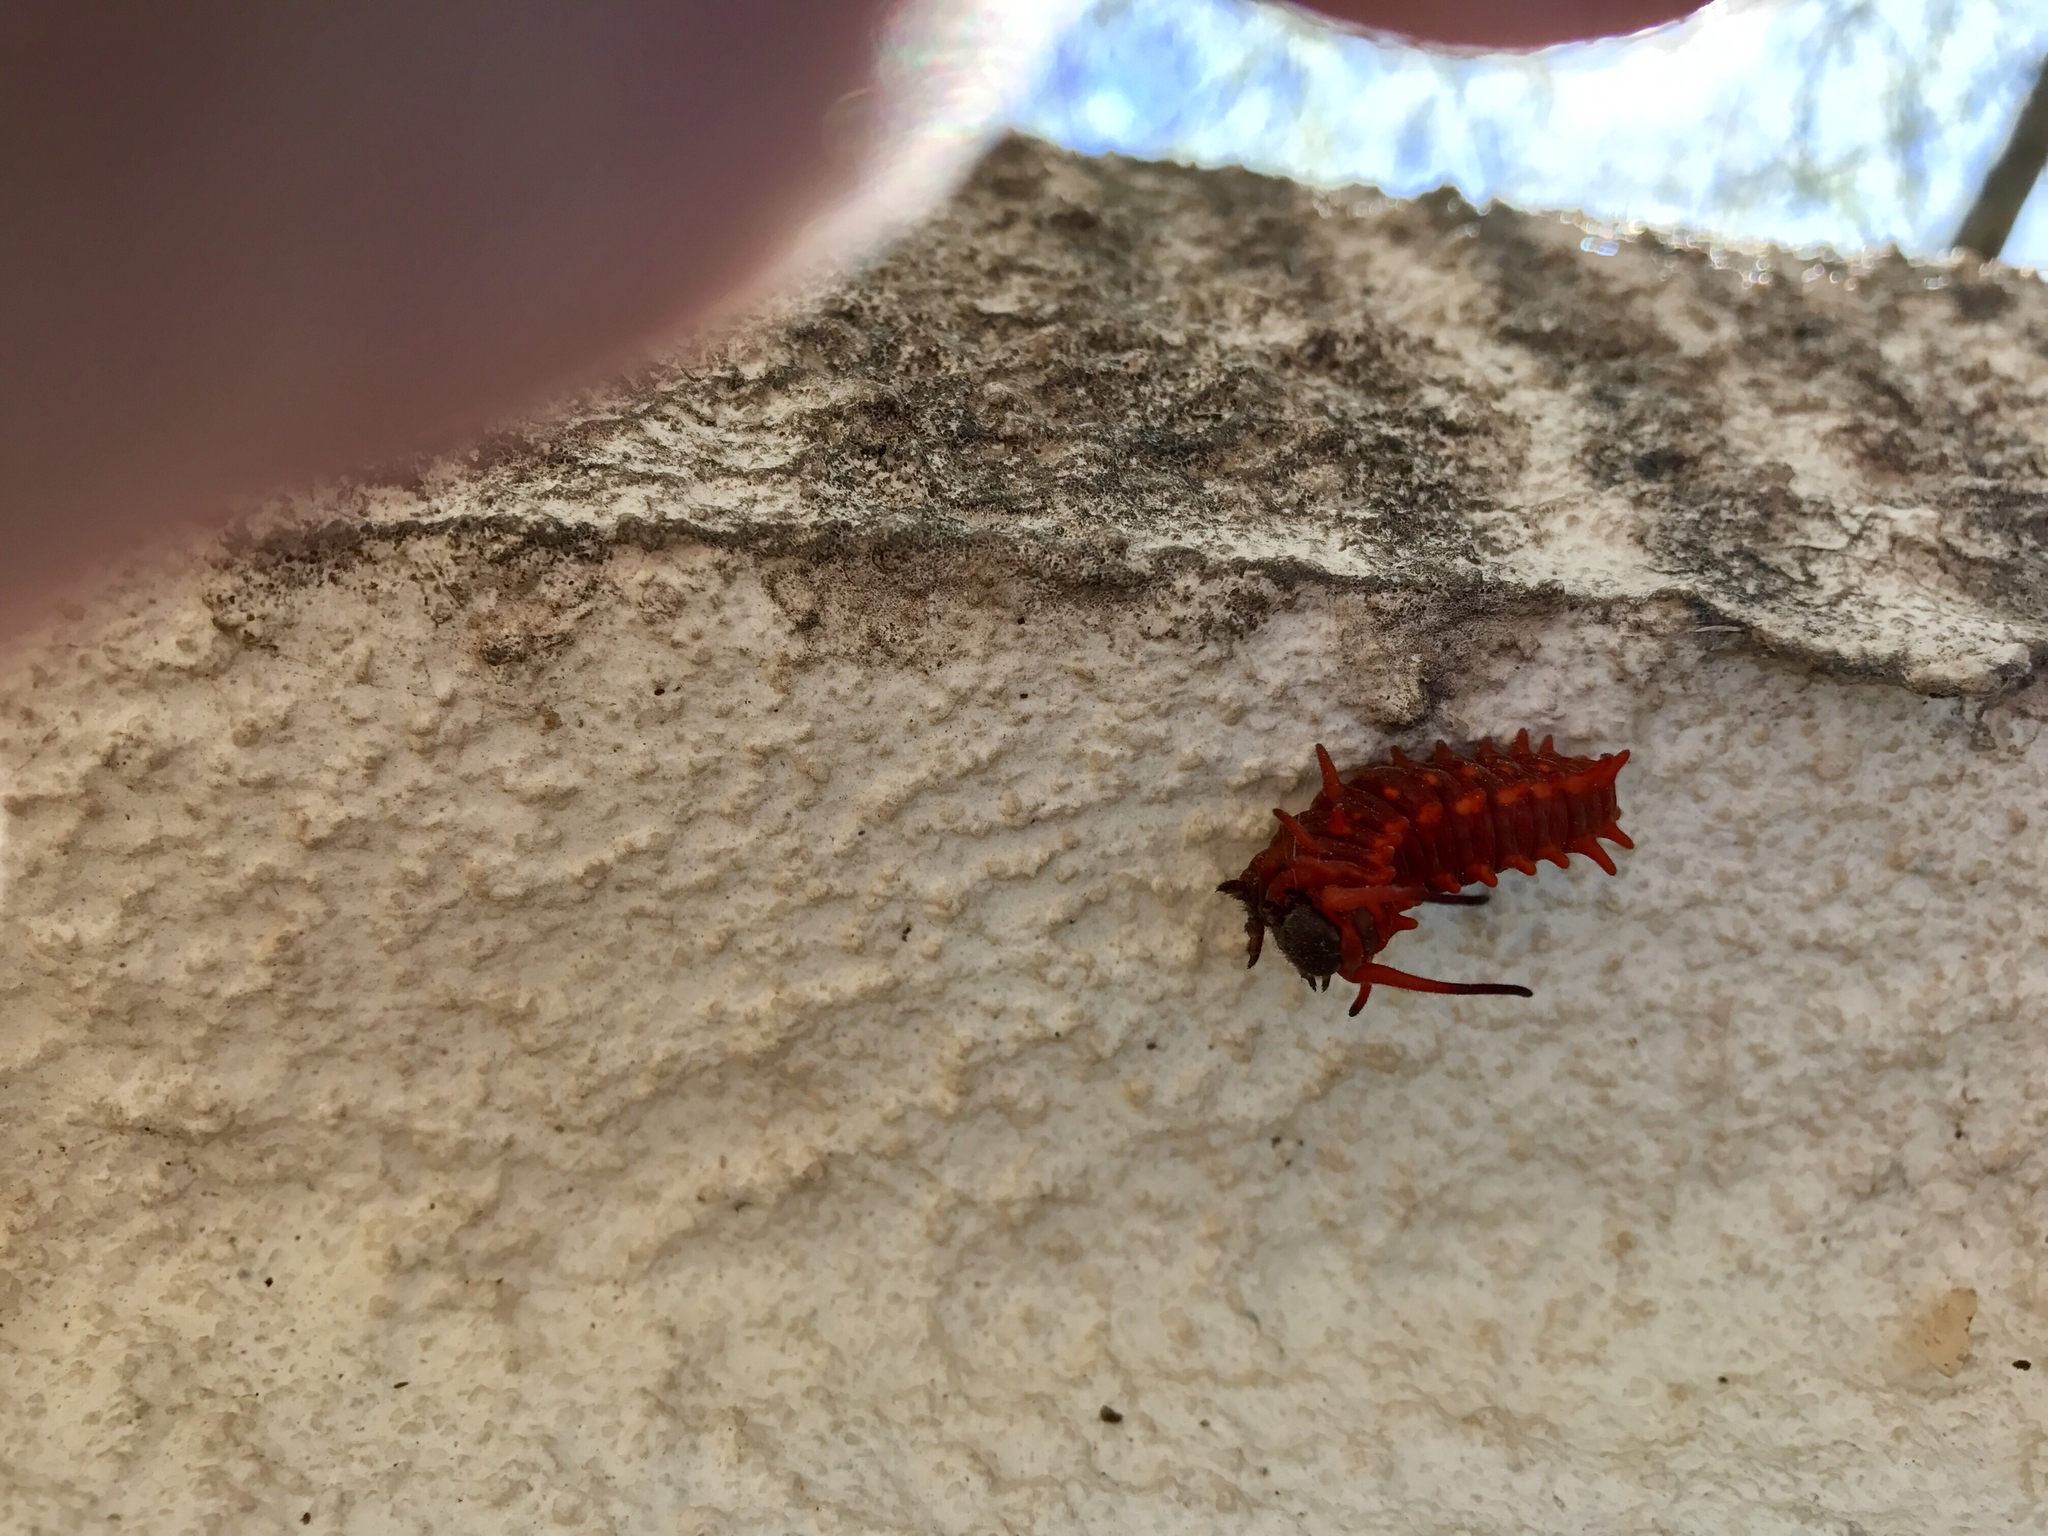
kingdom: Animalia
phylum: Arthropoda
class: Insecta
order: Lepidoptera
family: Papilionidae
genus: Battus
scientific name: Battus philenor
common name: Pipevine swallowtail
